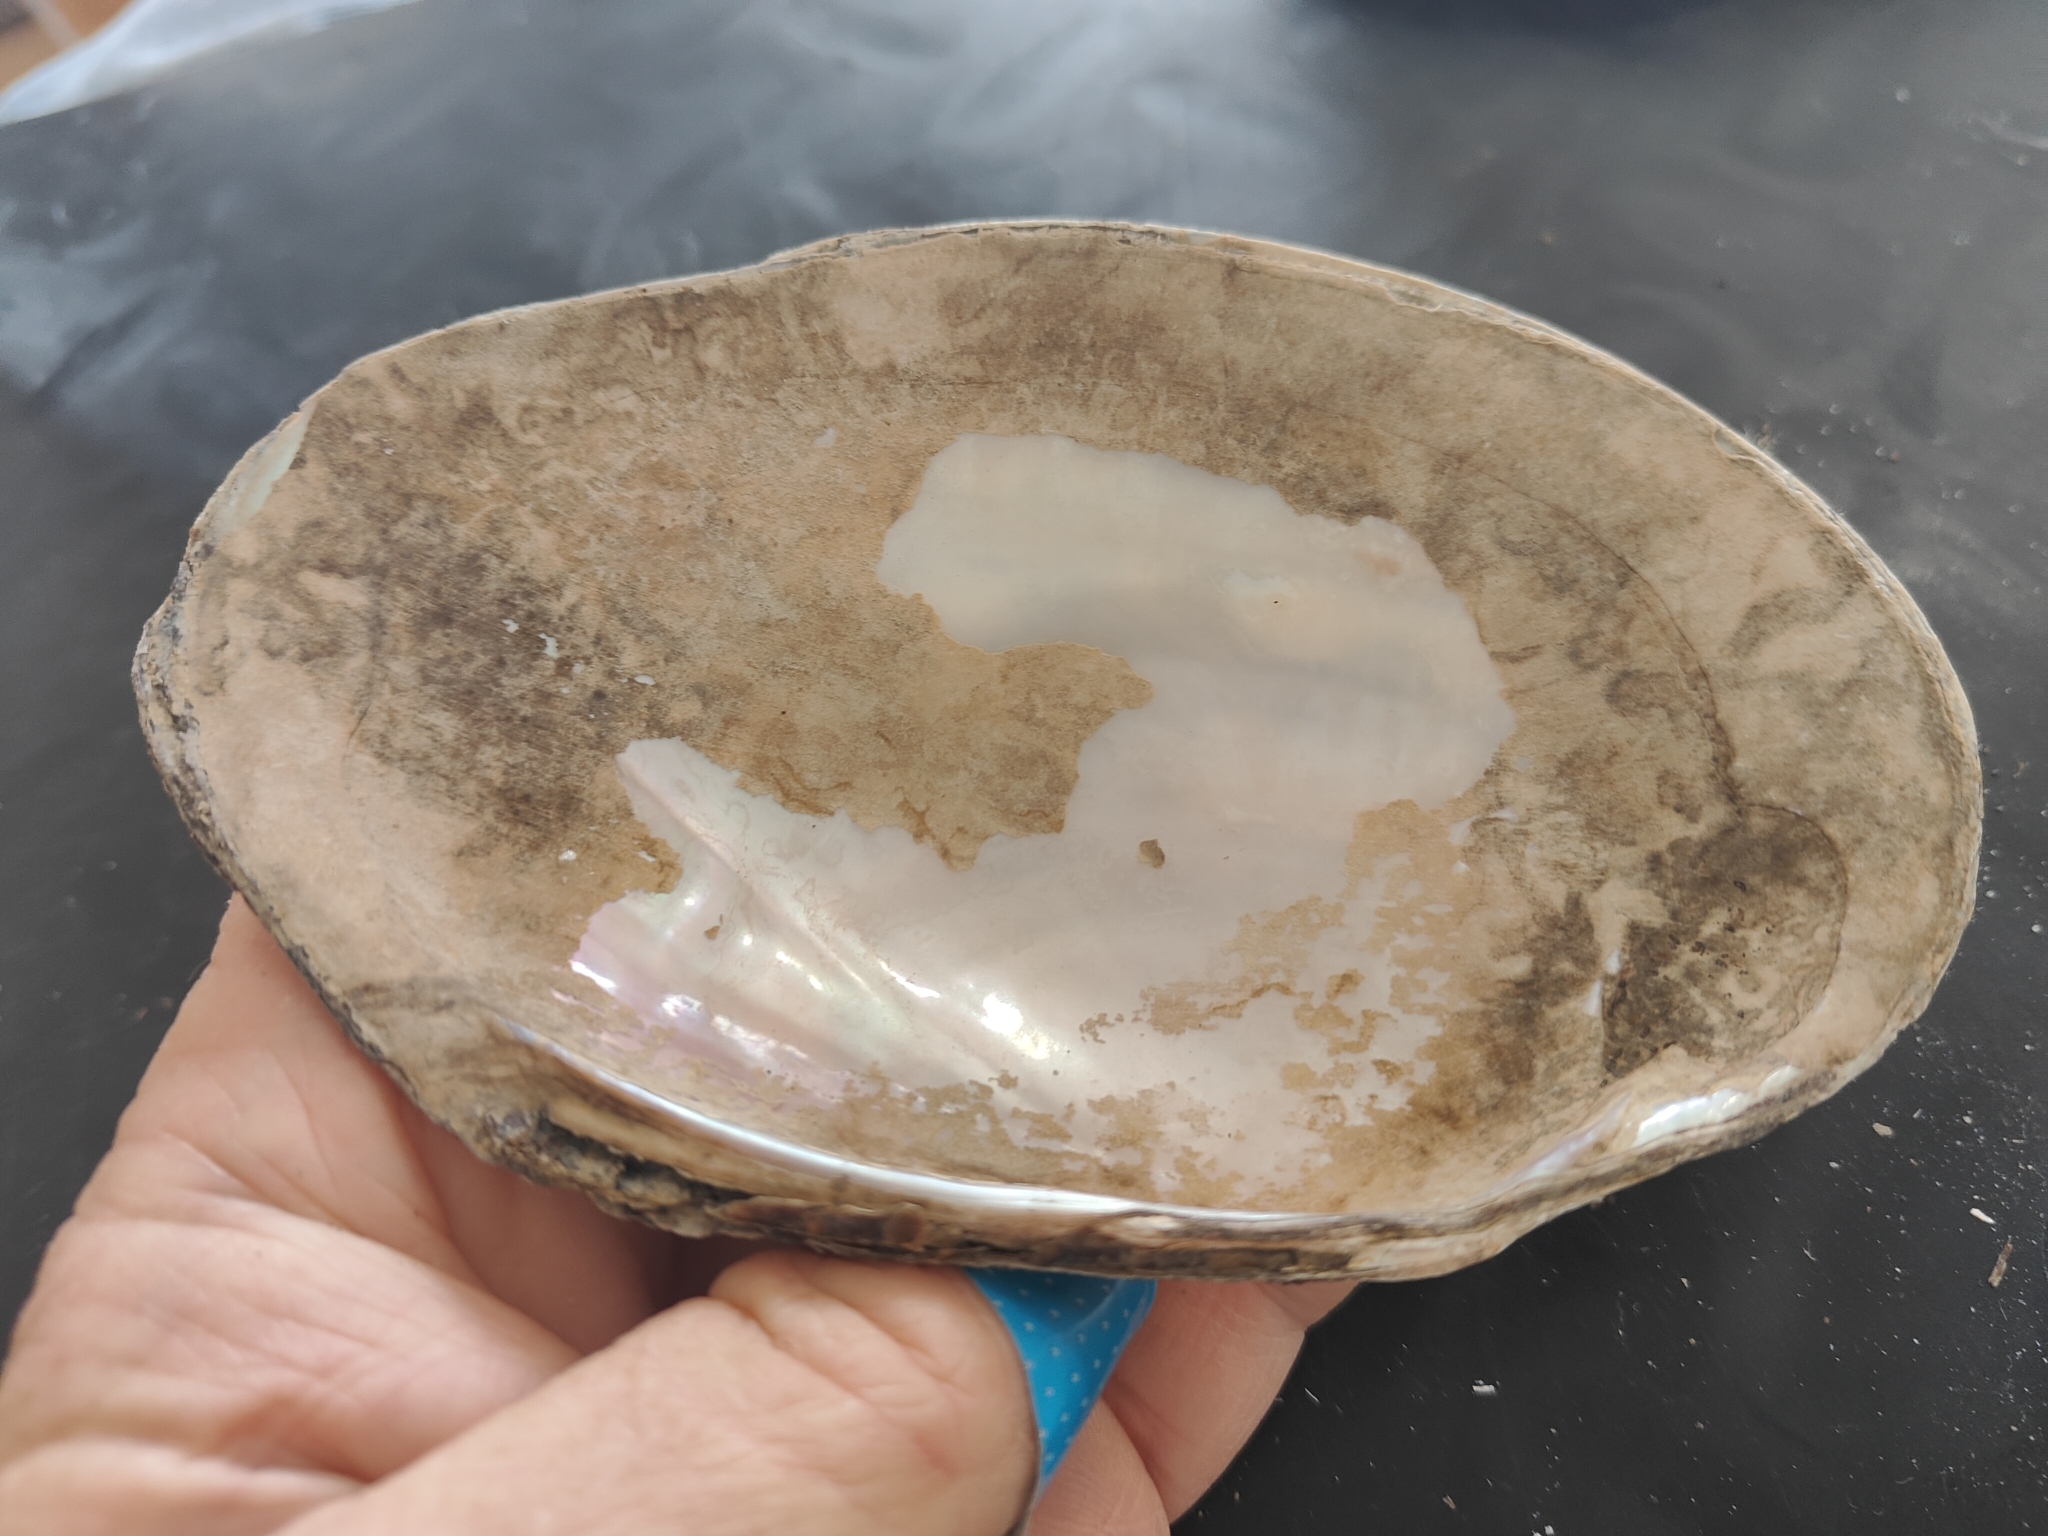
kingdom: Animalia
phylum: Mollusca
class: Bivalvia
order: Unionida
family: Unionidae
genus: Potamilus
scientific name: Potamilus fragilis
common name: Fragile papershell
